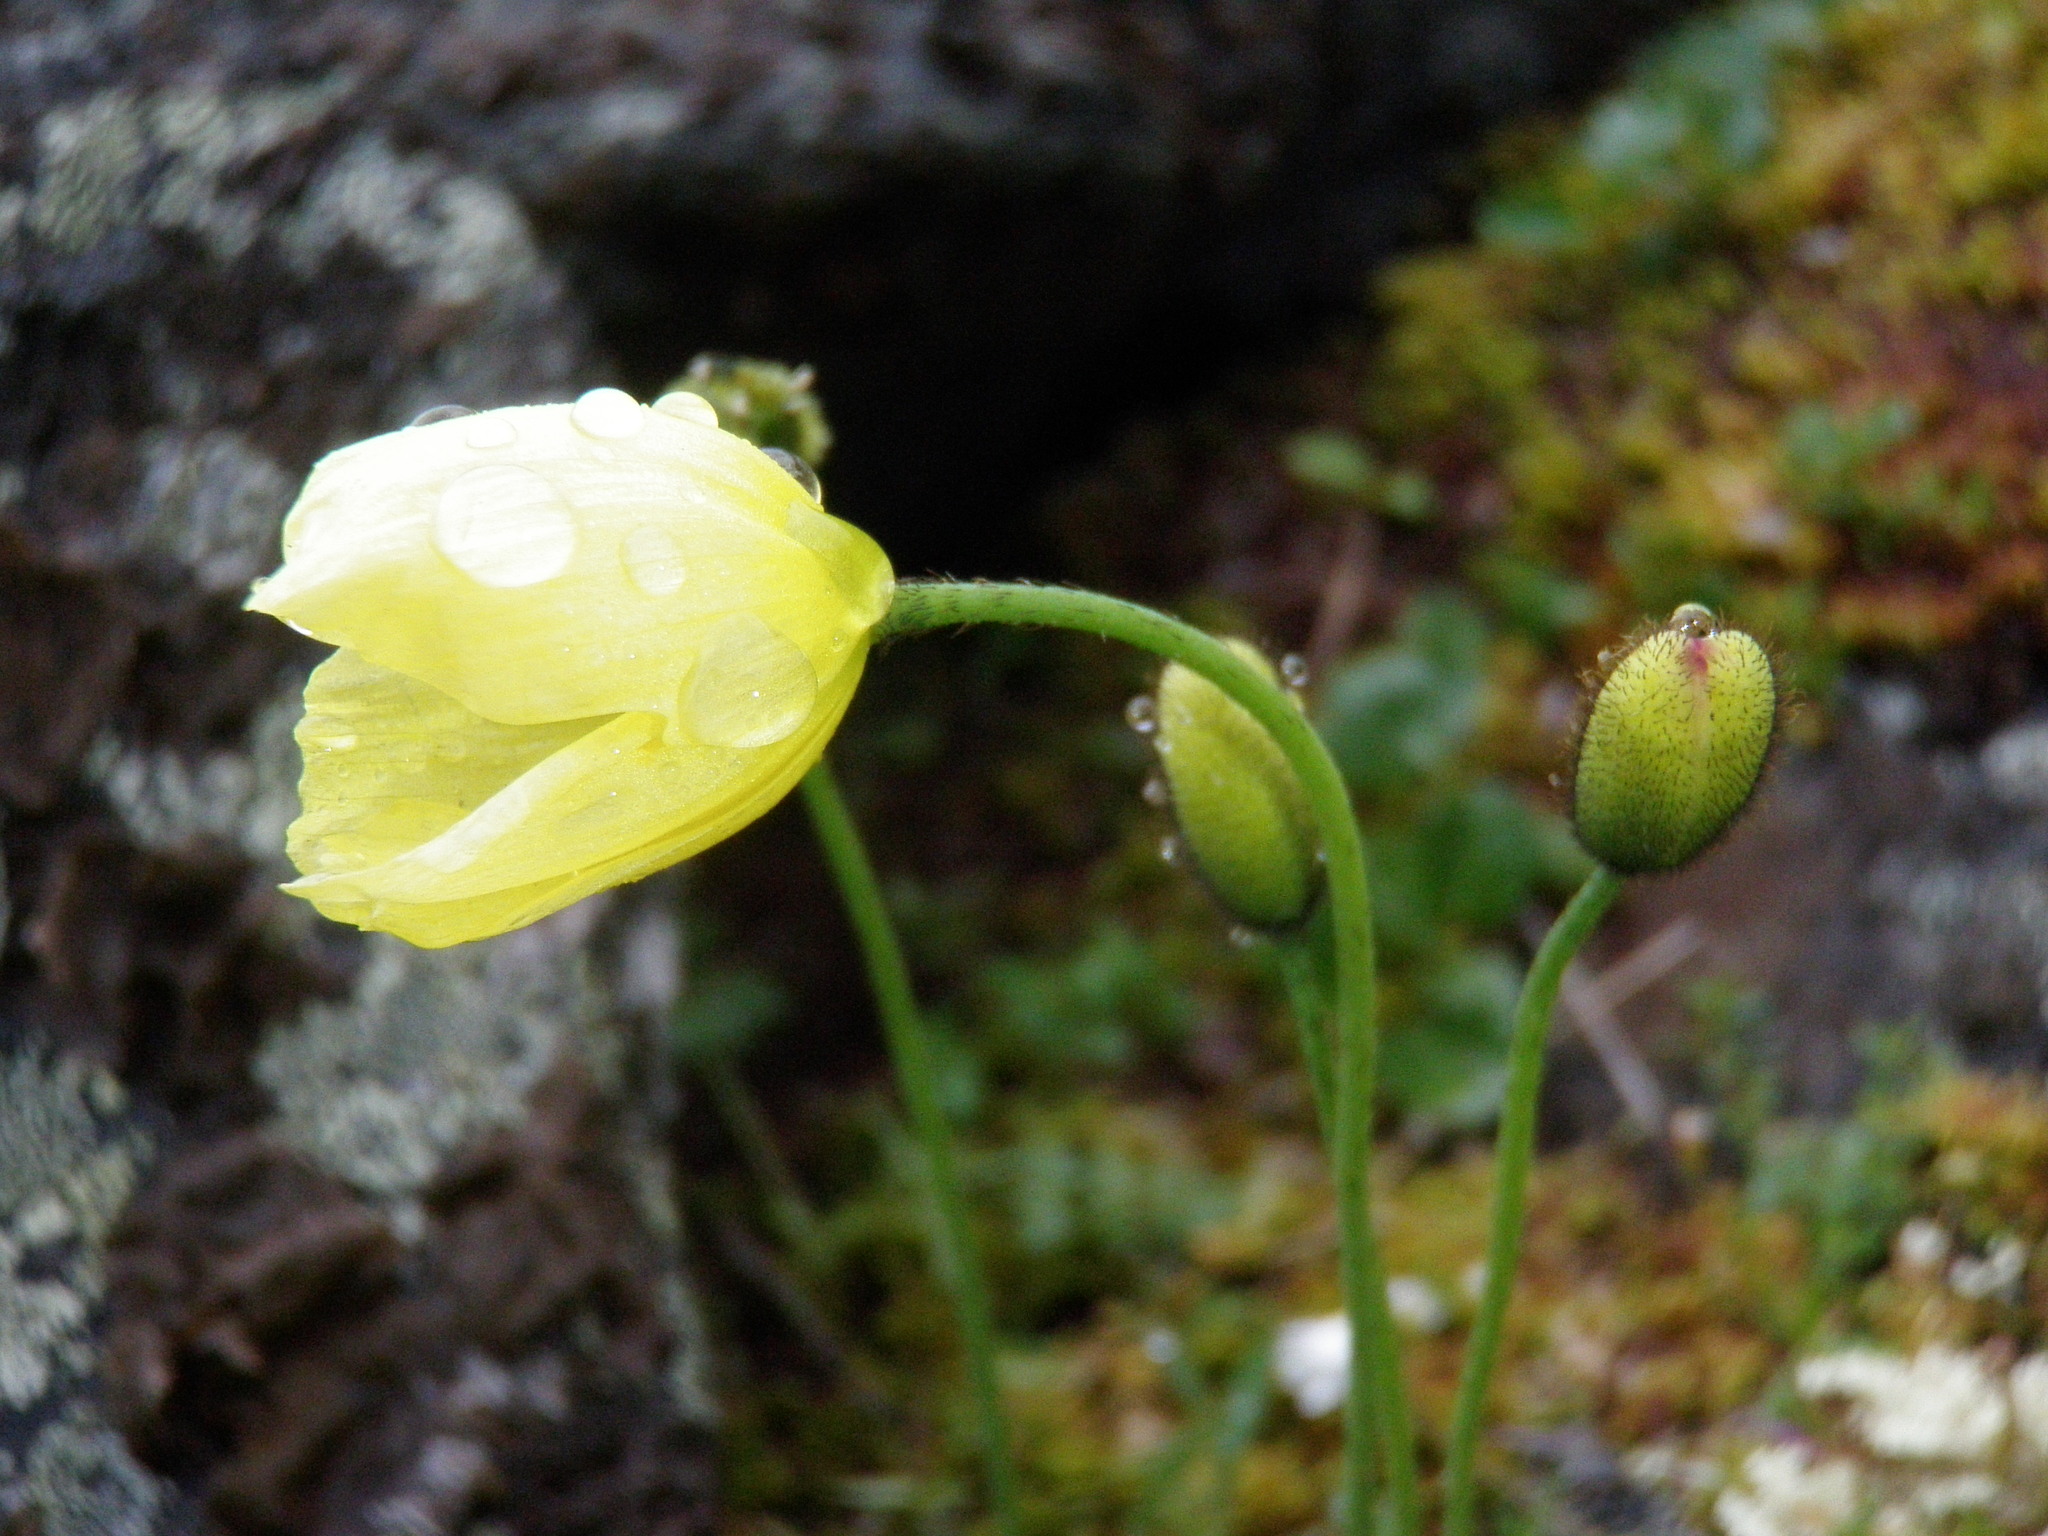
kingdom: Plantae
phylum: Tracheophyta
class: Magnoliopsida
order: Ranunculales
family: Papaveraceae
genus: Papaver
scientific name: Papaver lapponicum
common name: Lapland poppy
